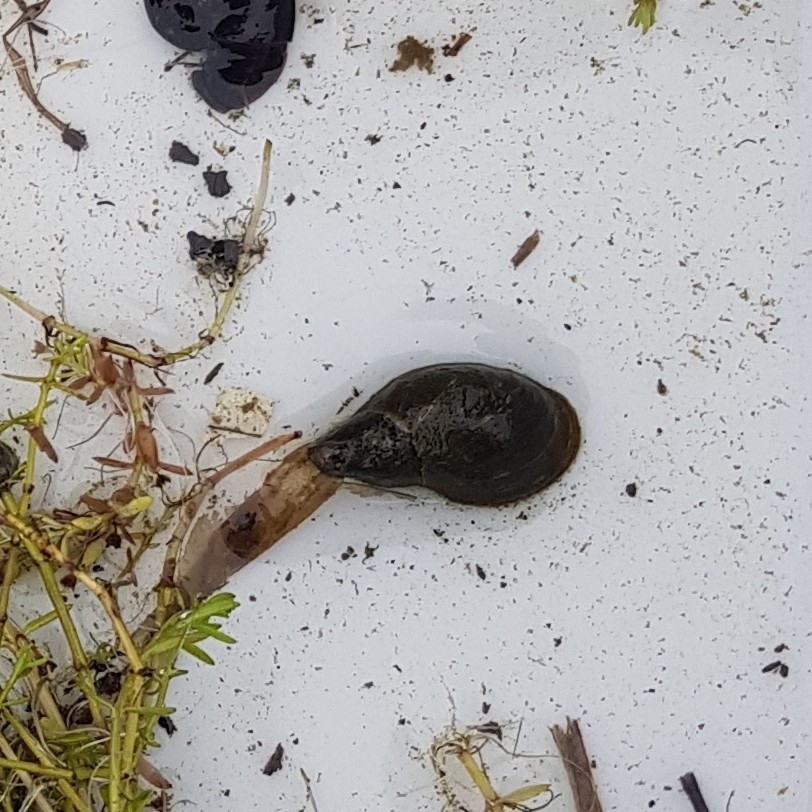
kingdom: Animalia
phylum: Mollusca
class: Gastropoda
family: Lymnaeidae
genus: Lymnaea
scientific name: Lymnaea stagnalis
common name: Great pond snail
